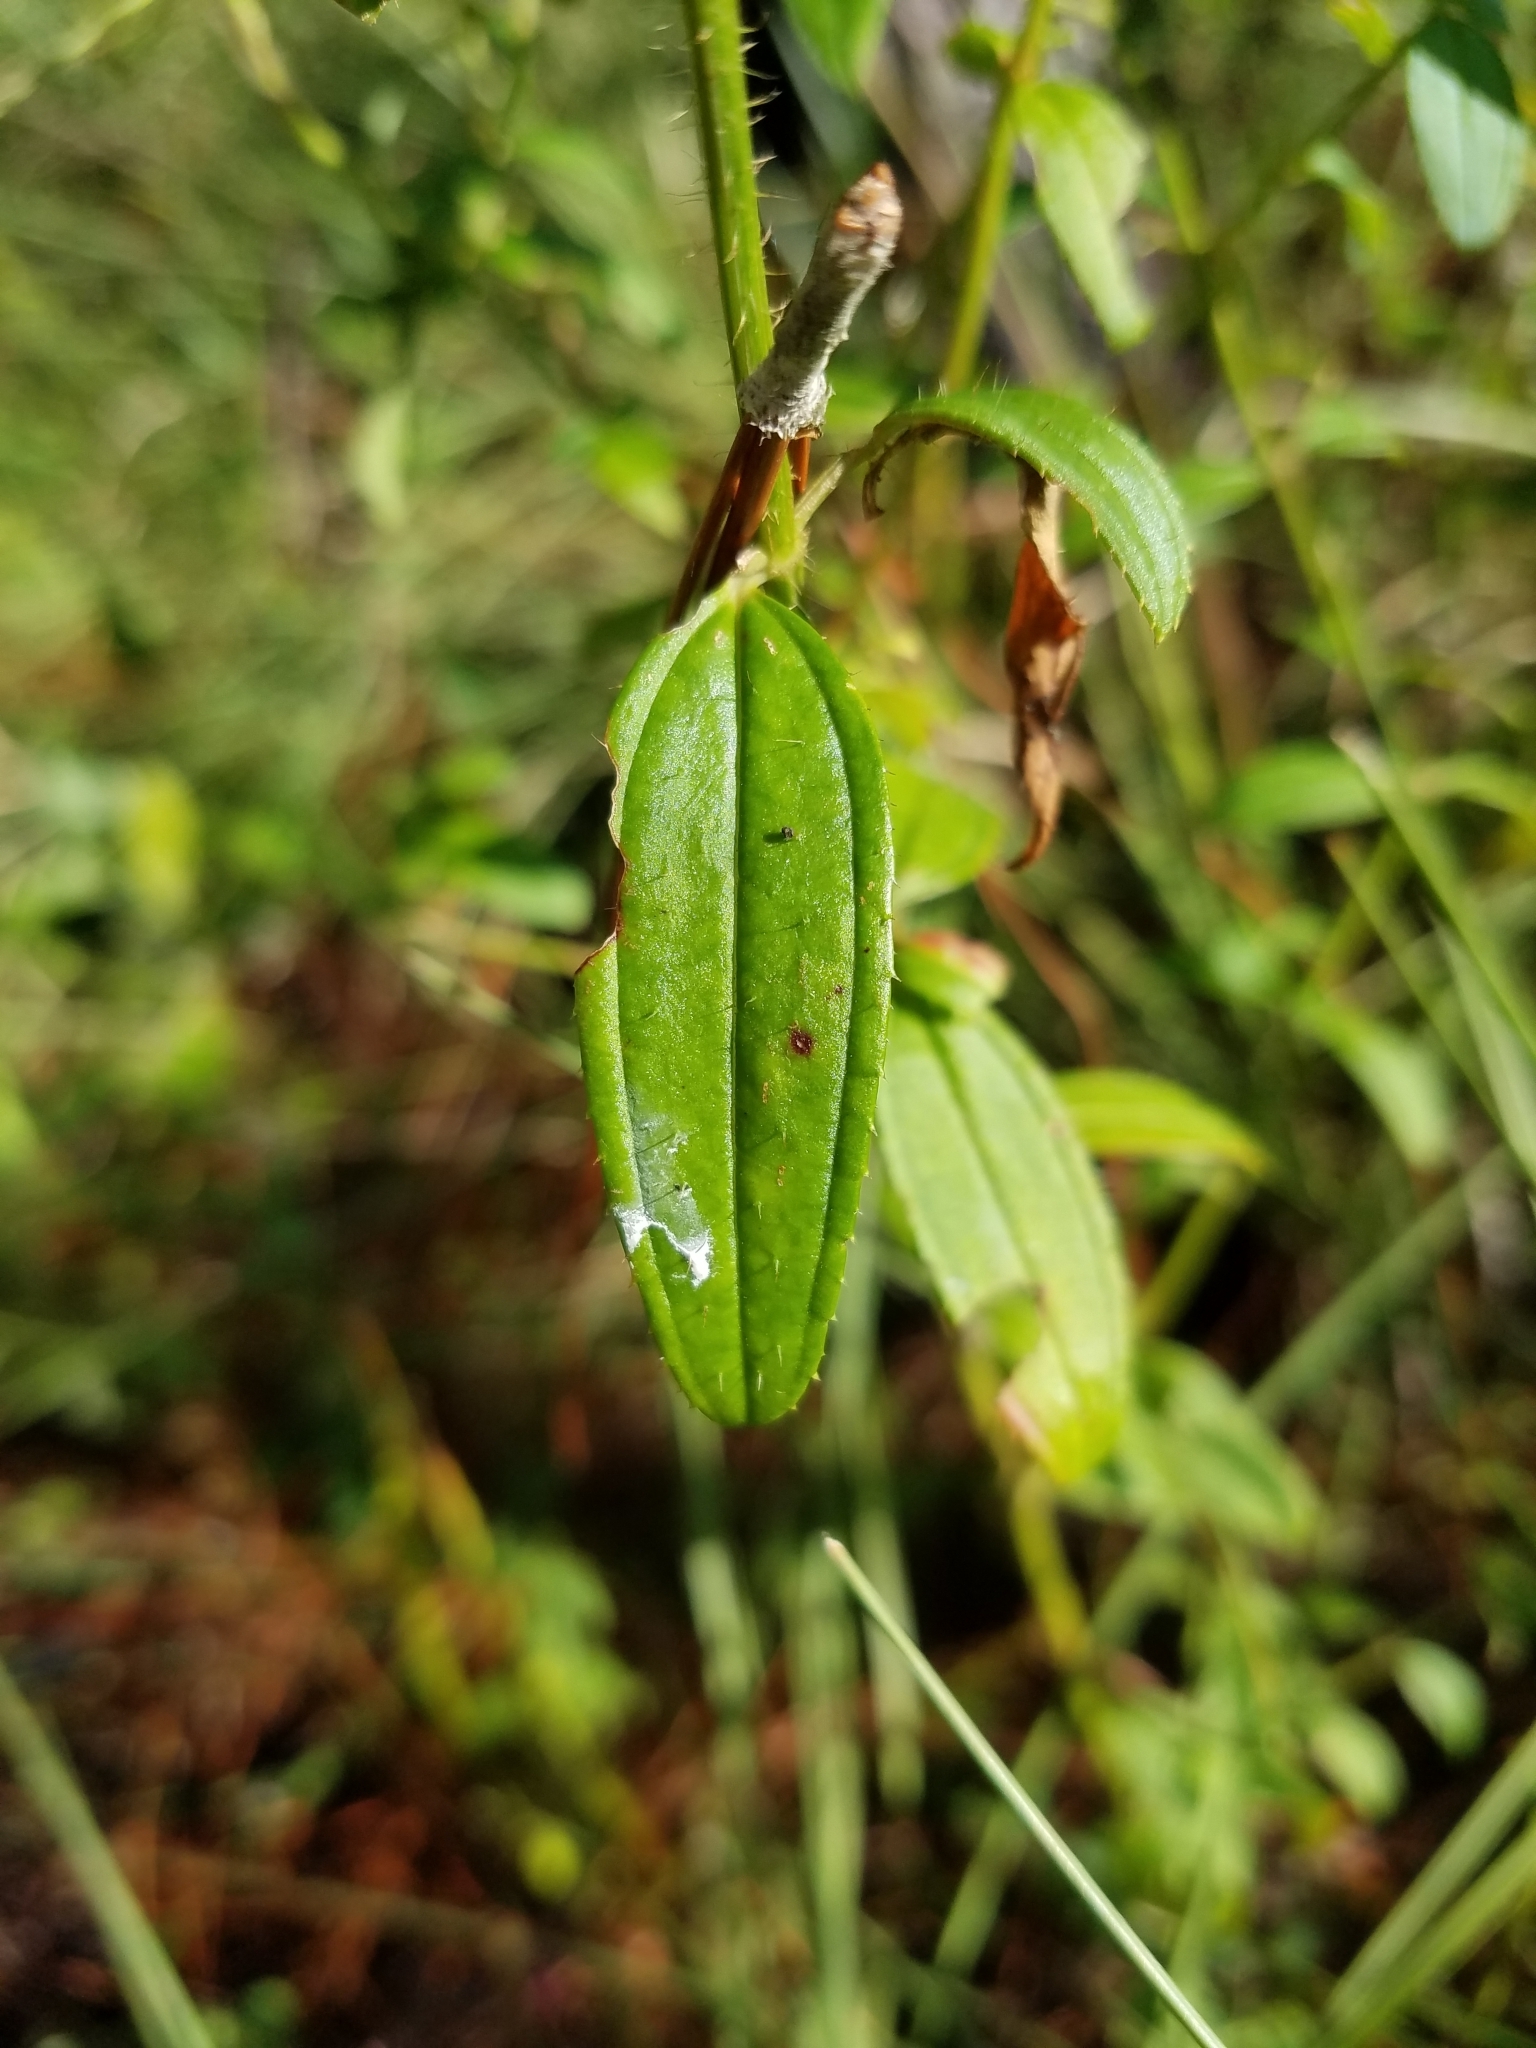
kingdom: Plantae
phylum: Tracheophyta
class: Magnoliopsida
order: Myrtales
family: Melastomataceae
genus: Rhexia
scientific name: Rhexia nashii
